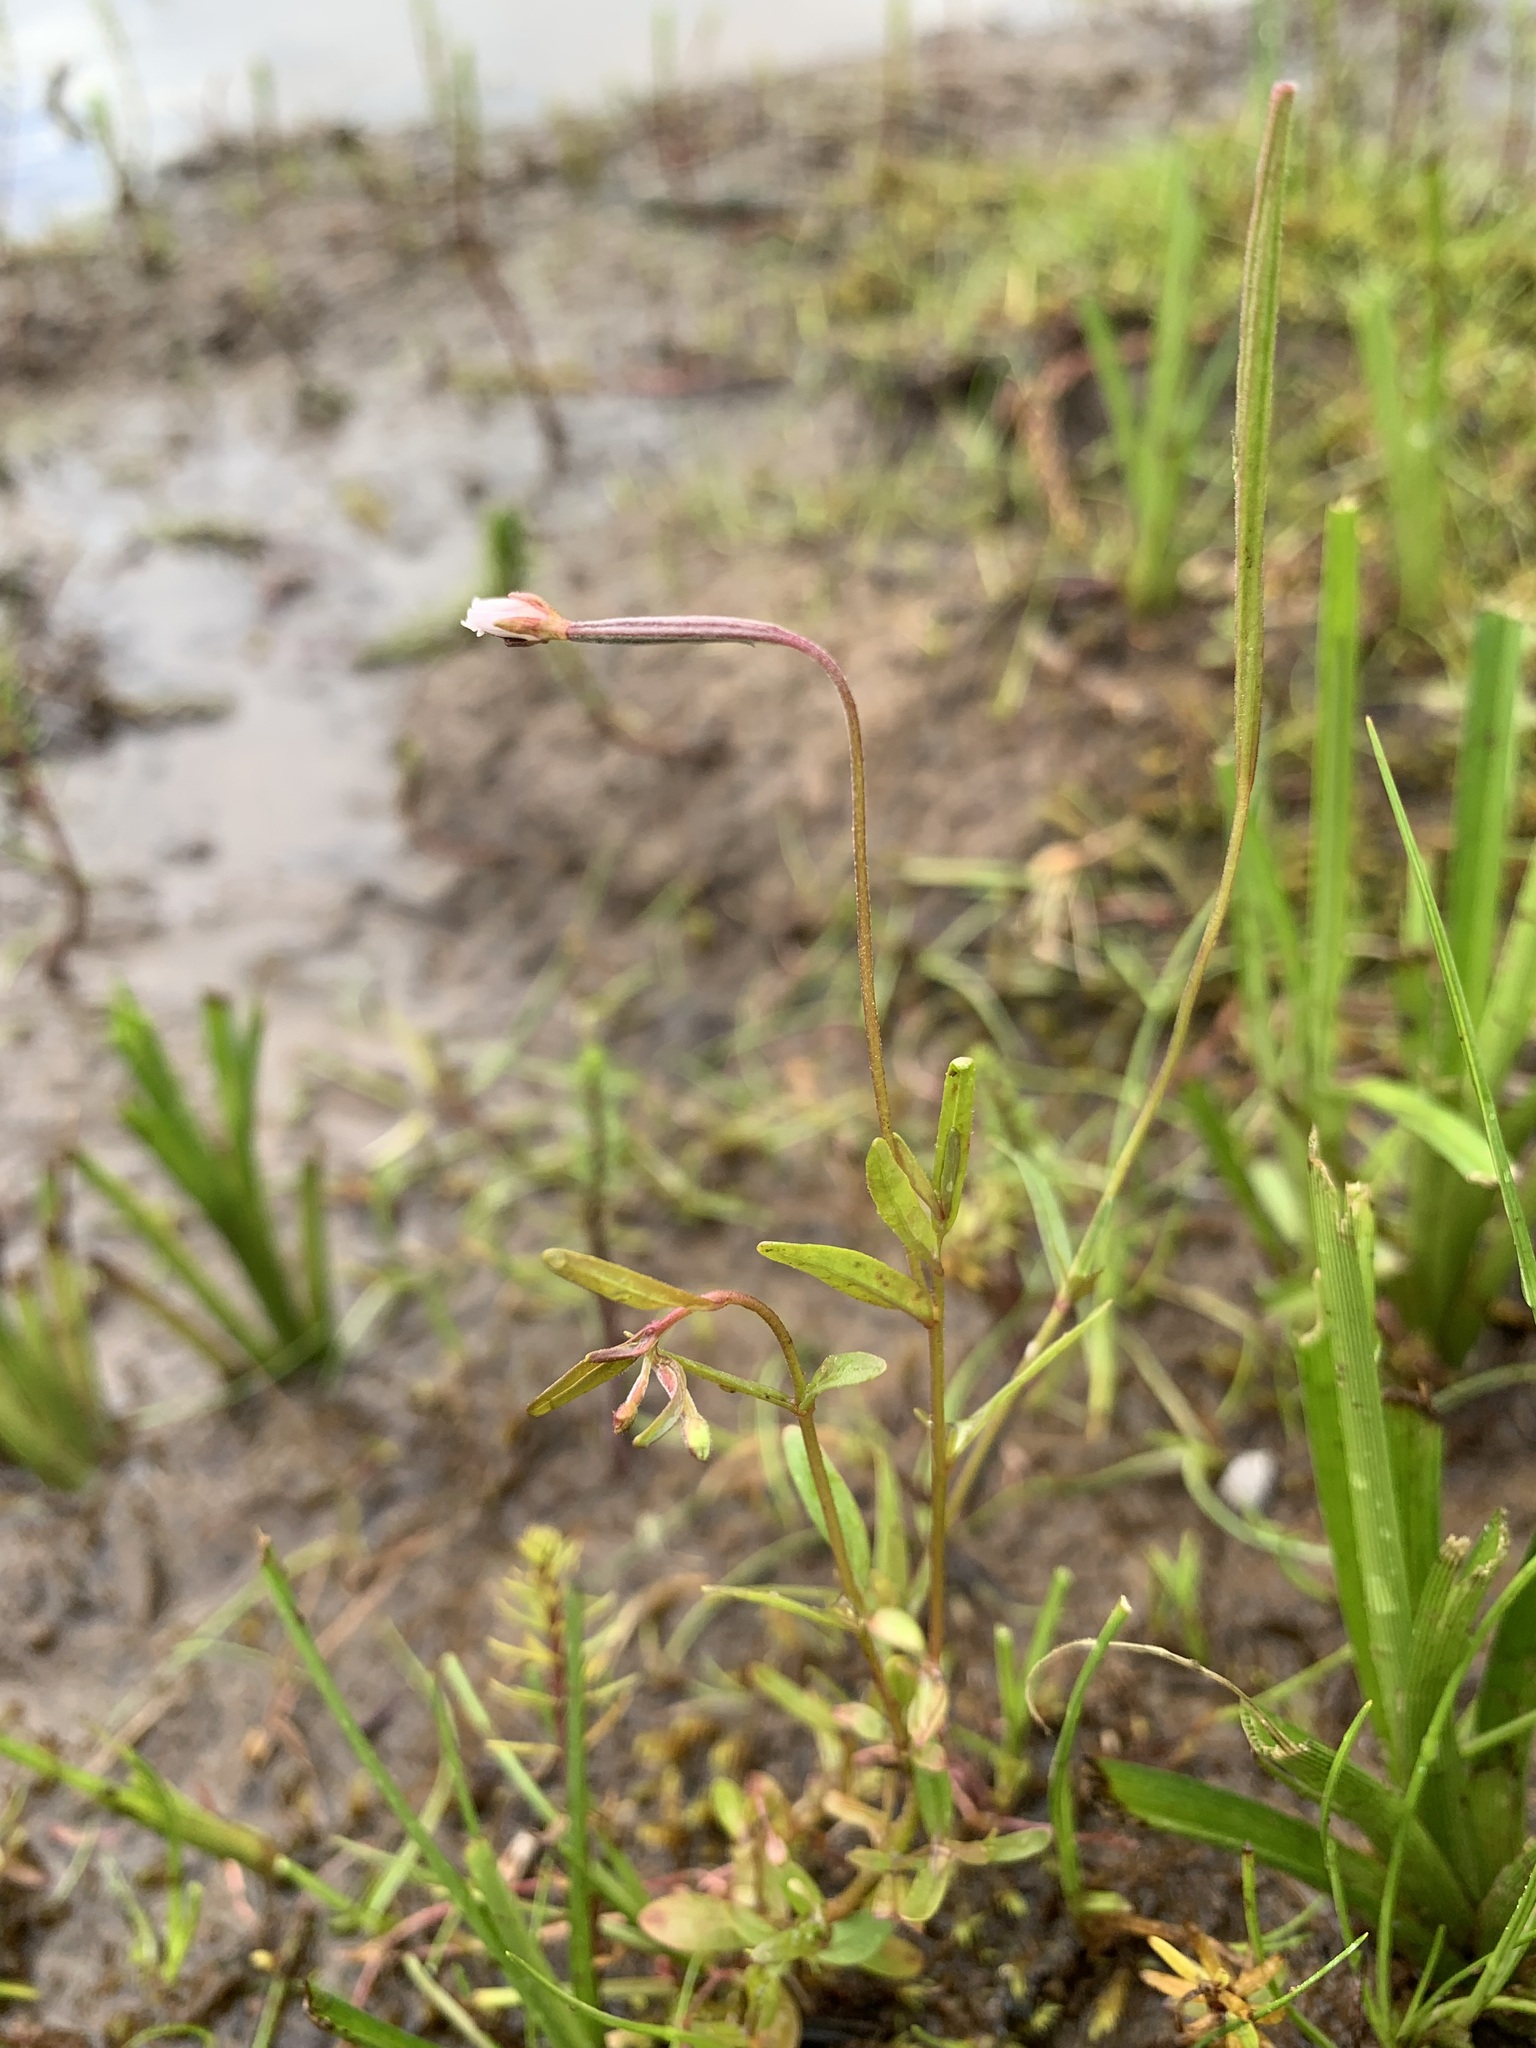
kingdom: Plantae
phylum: Tracheophyta
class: Magnoliopsida
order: Myrtales
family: Onagraceae
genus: Epilobium
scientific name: Epilobium palustre
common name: Marsh willowherb
